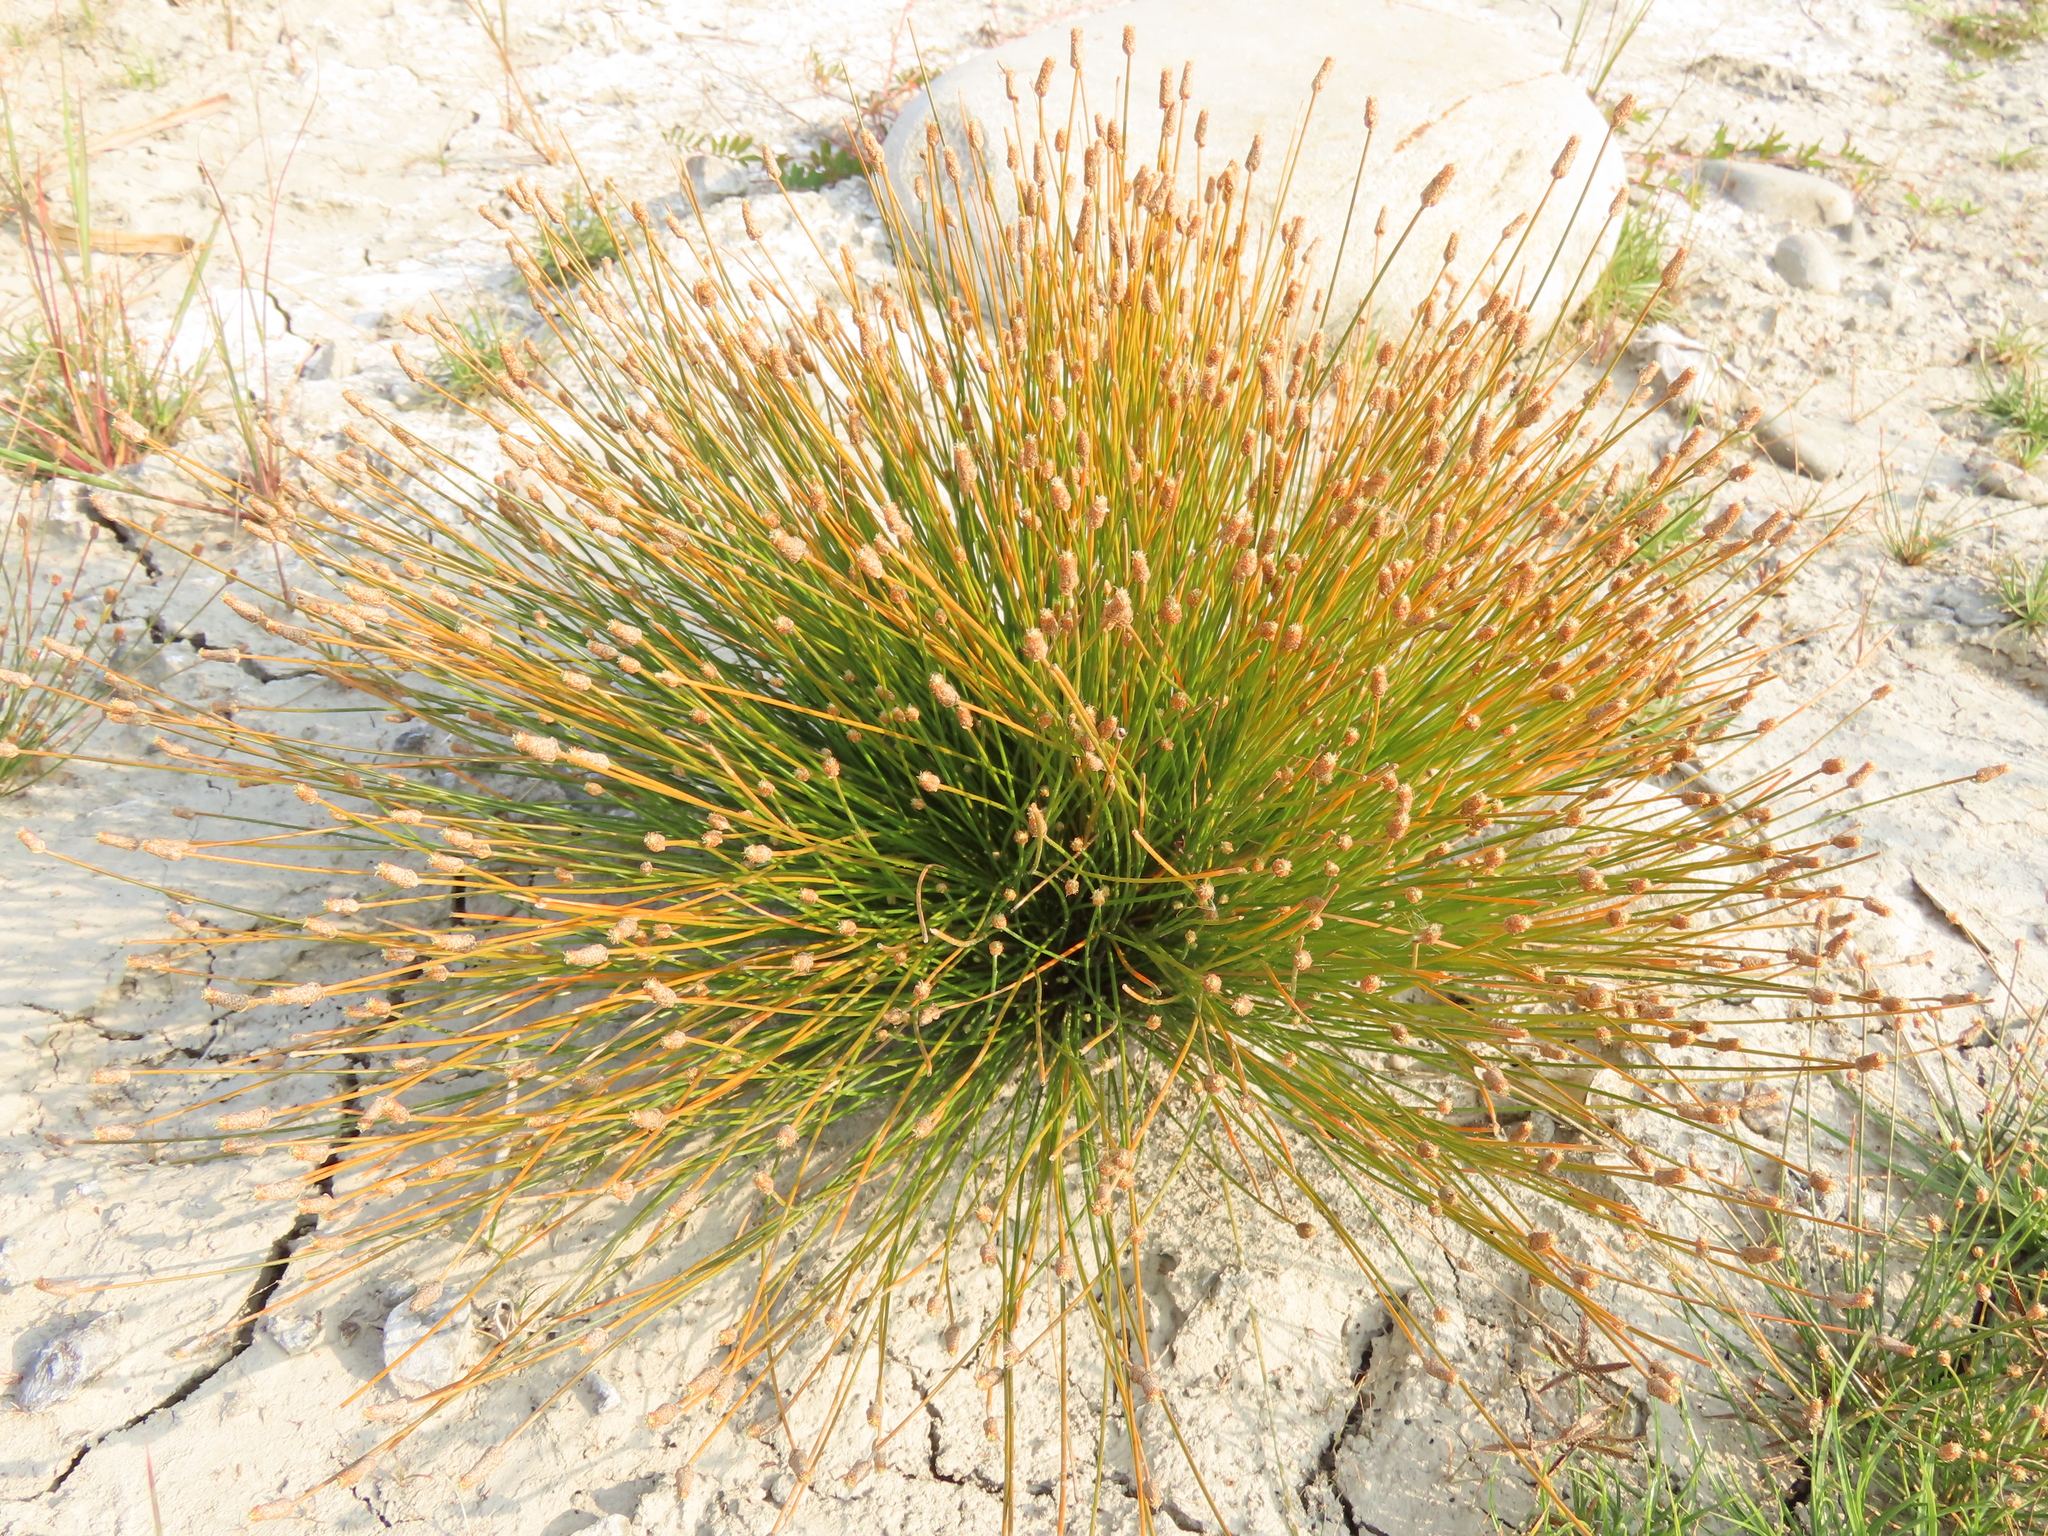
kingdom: Plantae
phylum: Tracheophyta
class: Liliopsida
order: Poales
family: Cyperaceae
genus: Eleocharis
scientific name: Eleocharis geniculata
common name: Canada spikesedge
